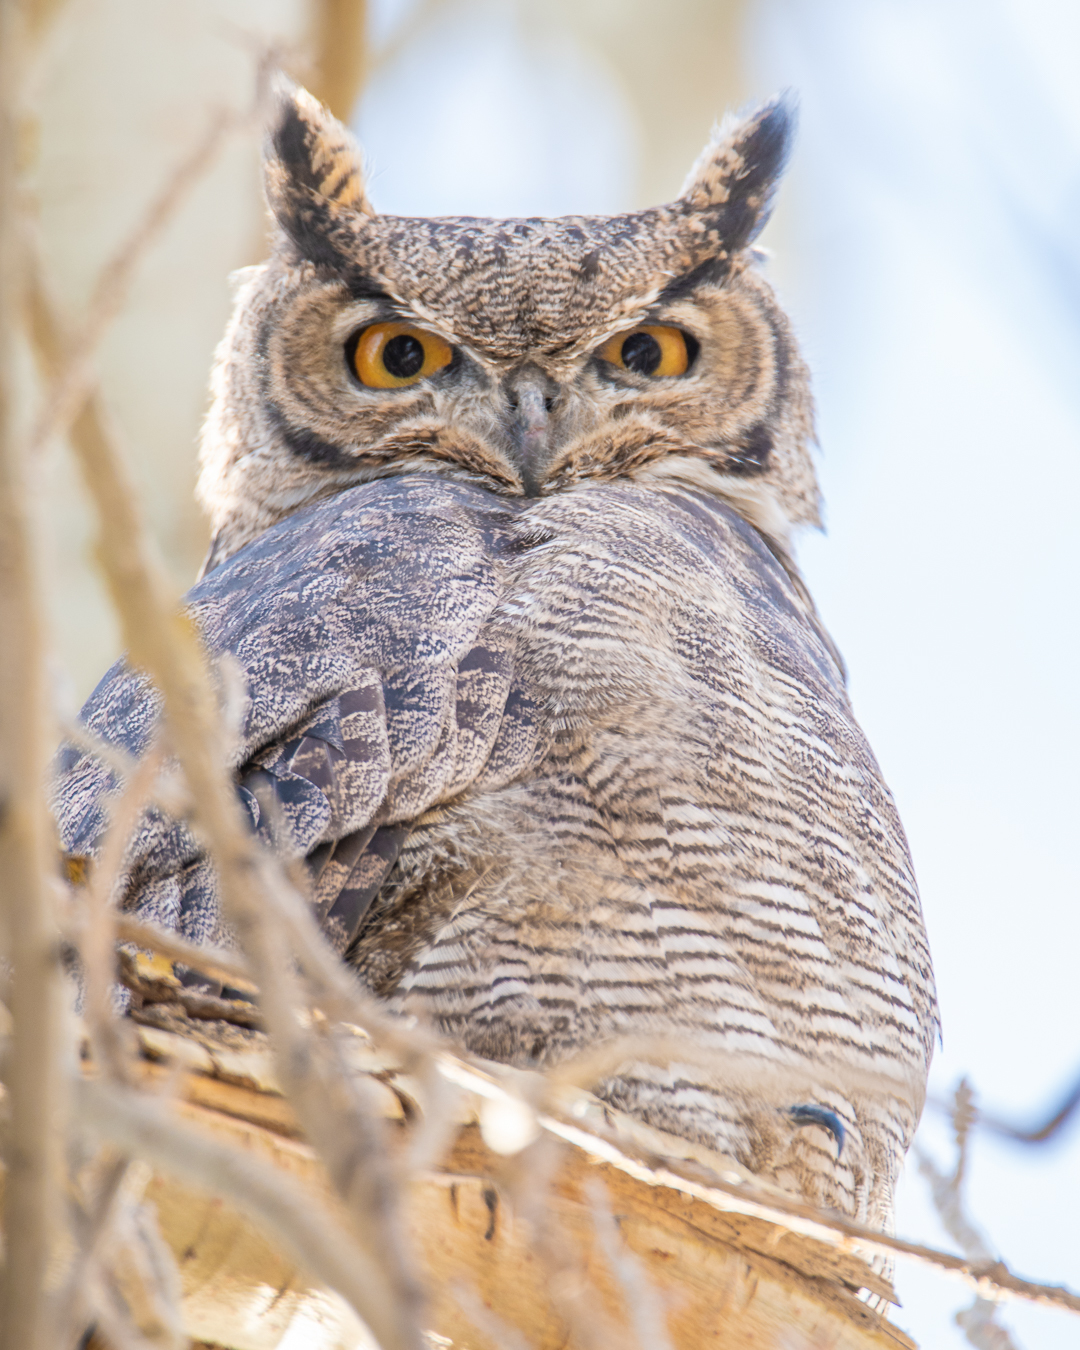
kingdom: Animalia
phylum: Chordata
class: Aves
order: Strigiformes
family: Strigidae
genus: Bubo
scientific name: Bubo magellanicus
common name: Lesser horned owl
